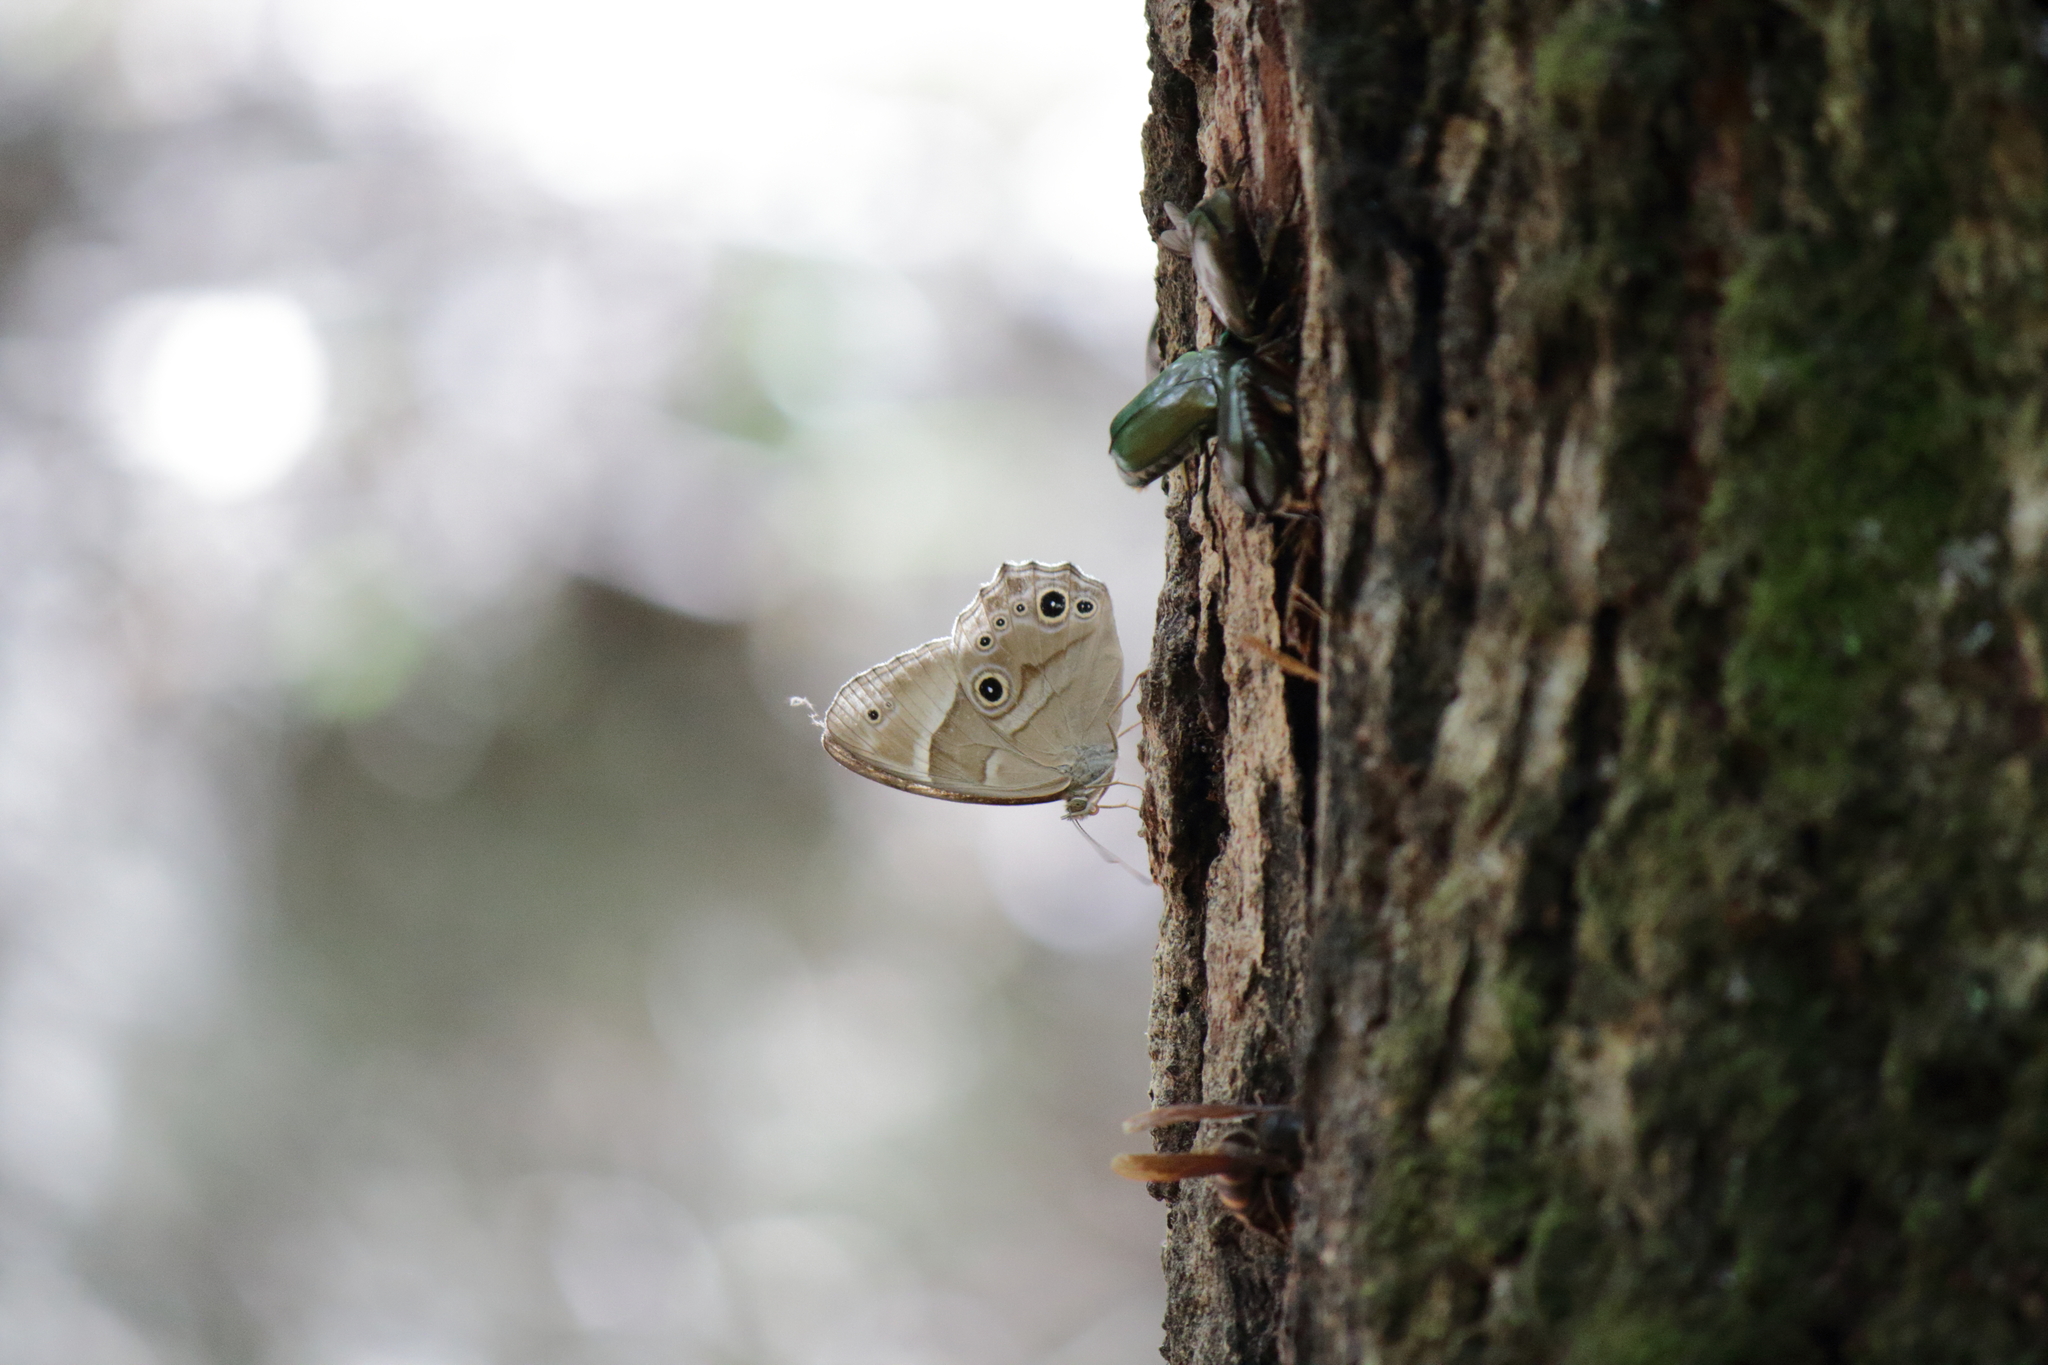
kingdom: Animalia
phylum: Arthropoda
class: Insecta
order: Lepidoptera
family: Nymphalidae
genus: Lethe
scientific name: Lethe sicelis
